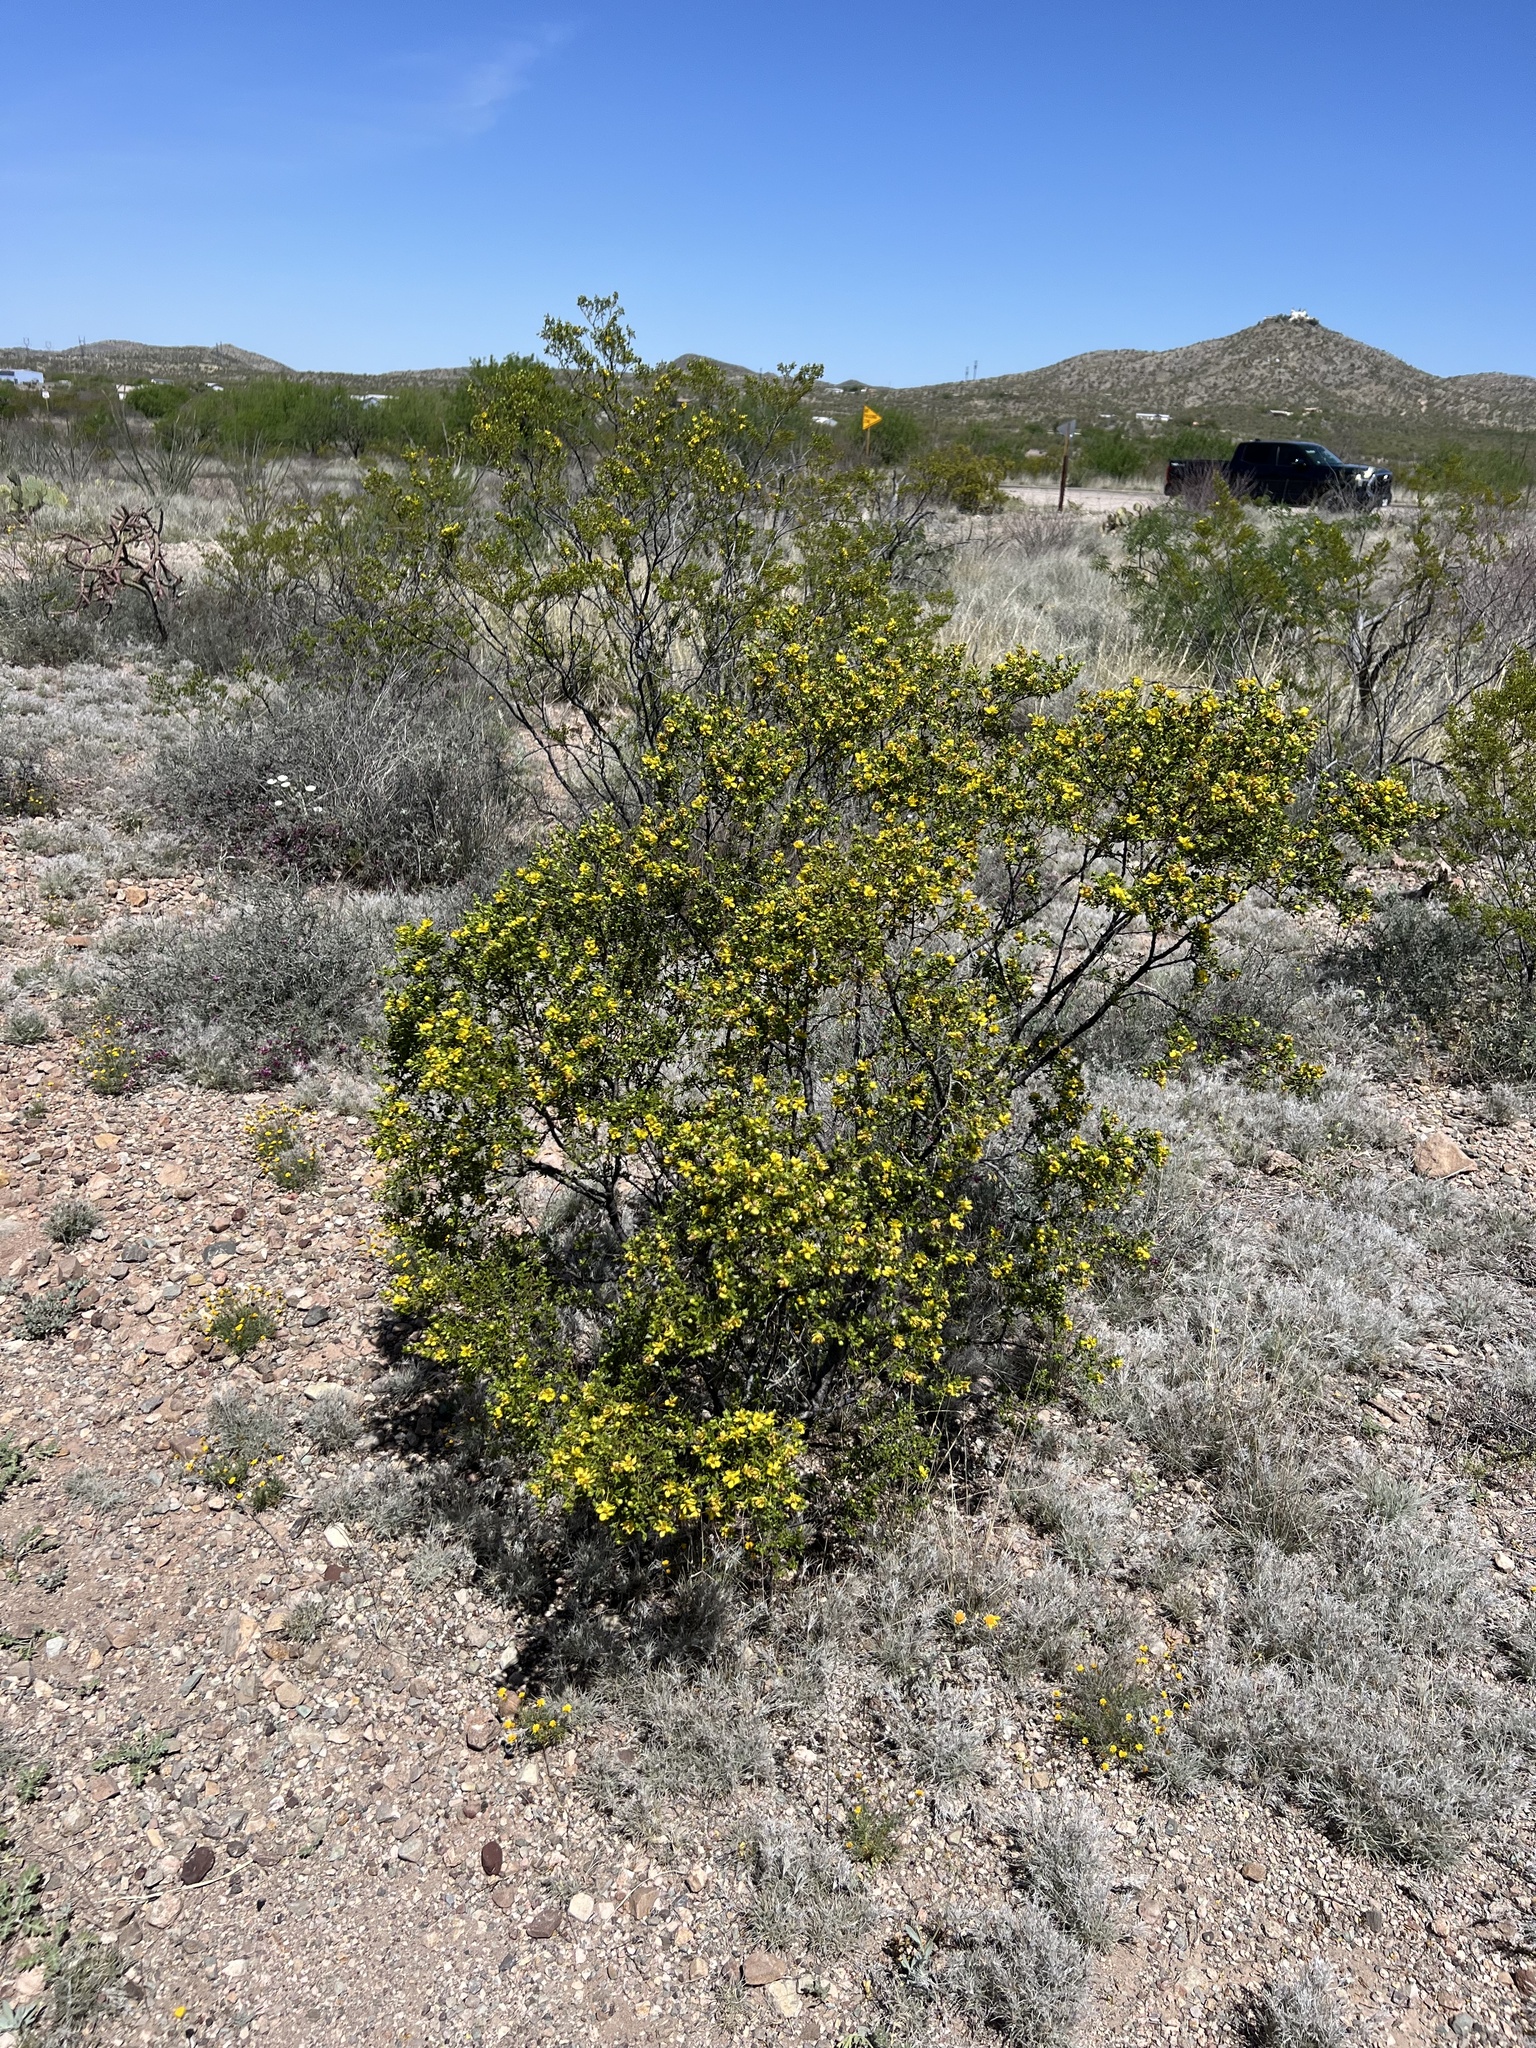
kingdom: Plantae
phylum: Tracheophyta
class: Magnoliopsida
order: Zygophyllales
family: Zygophyllaceae
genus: Larrea
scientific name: Larrea tridentata
